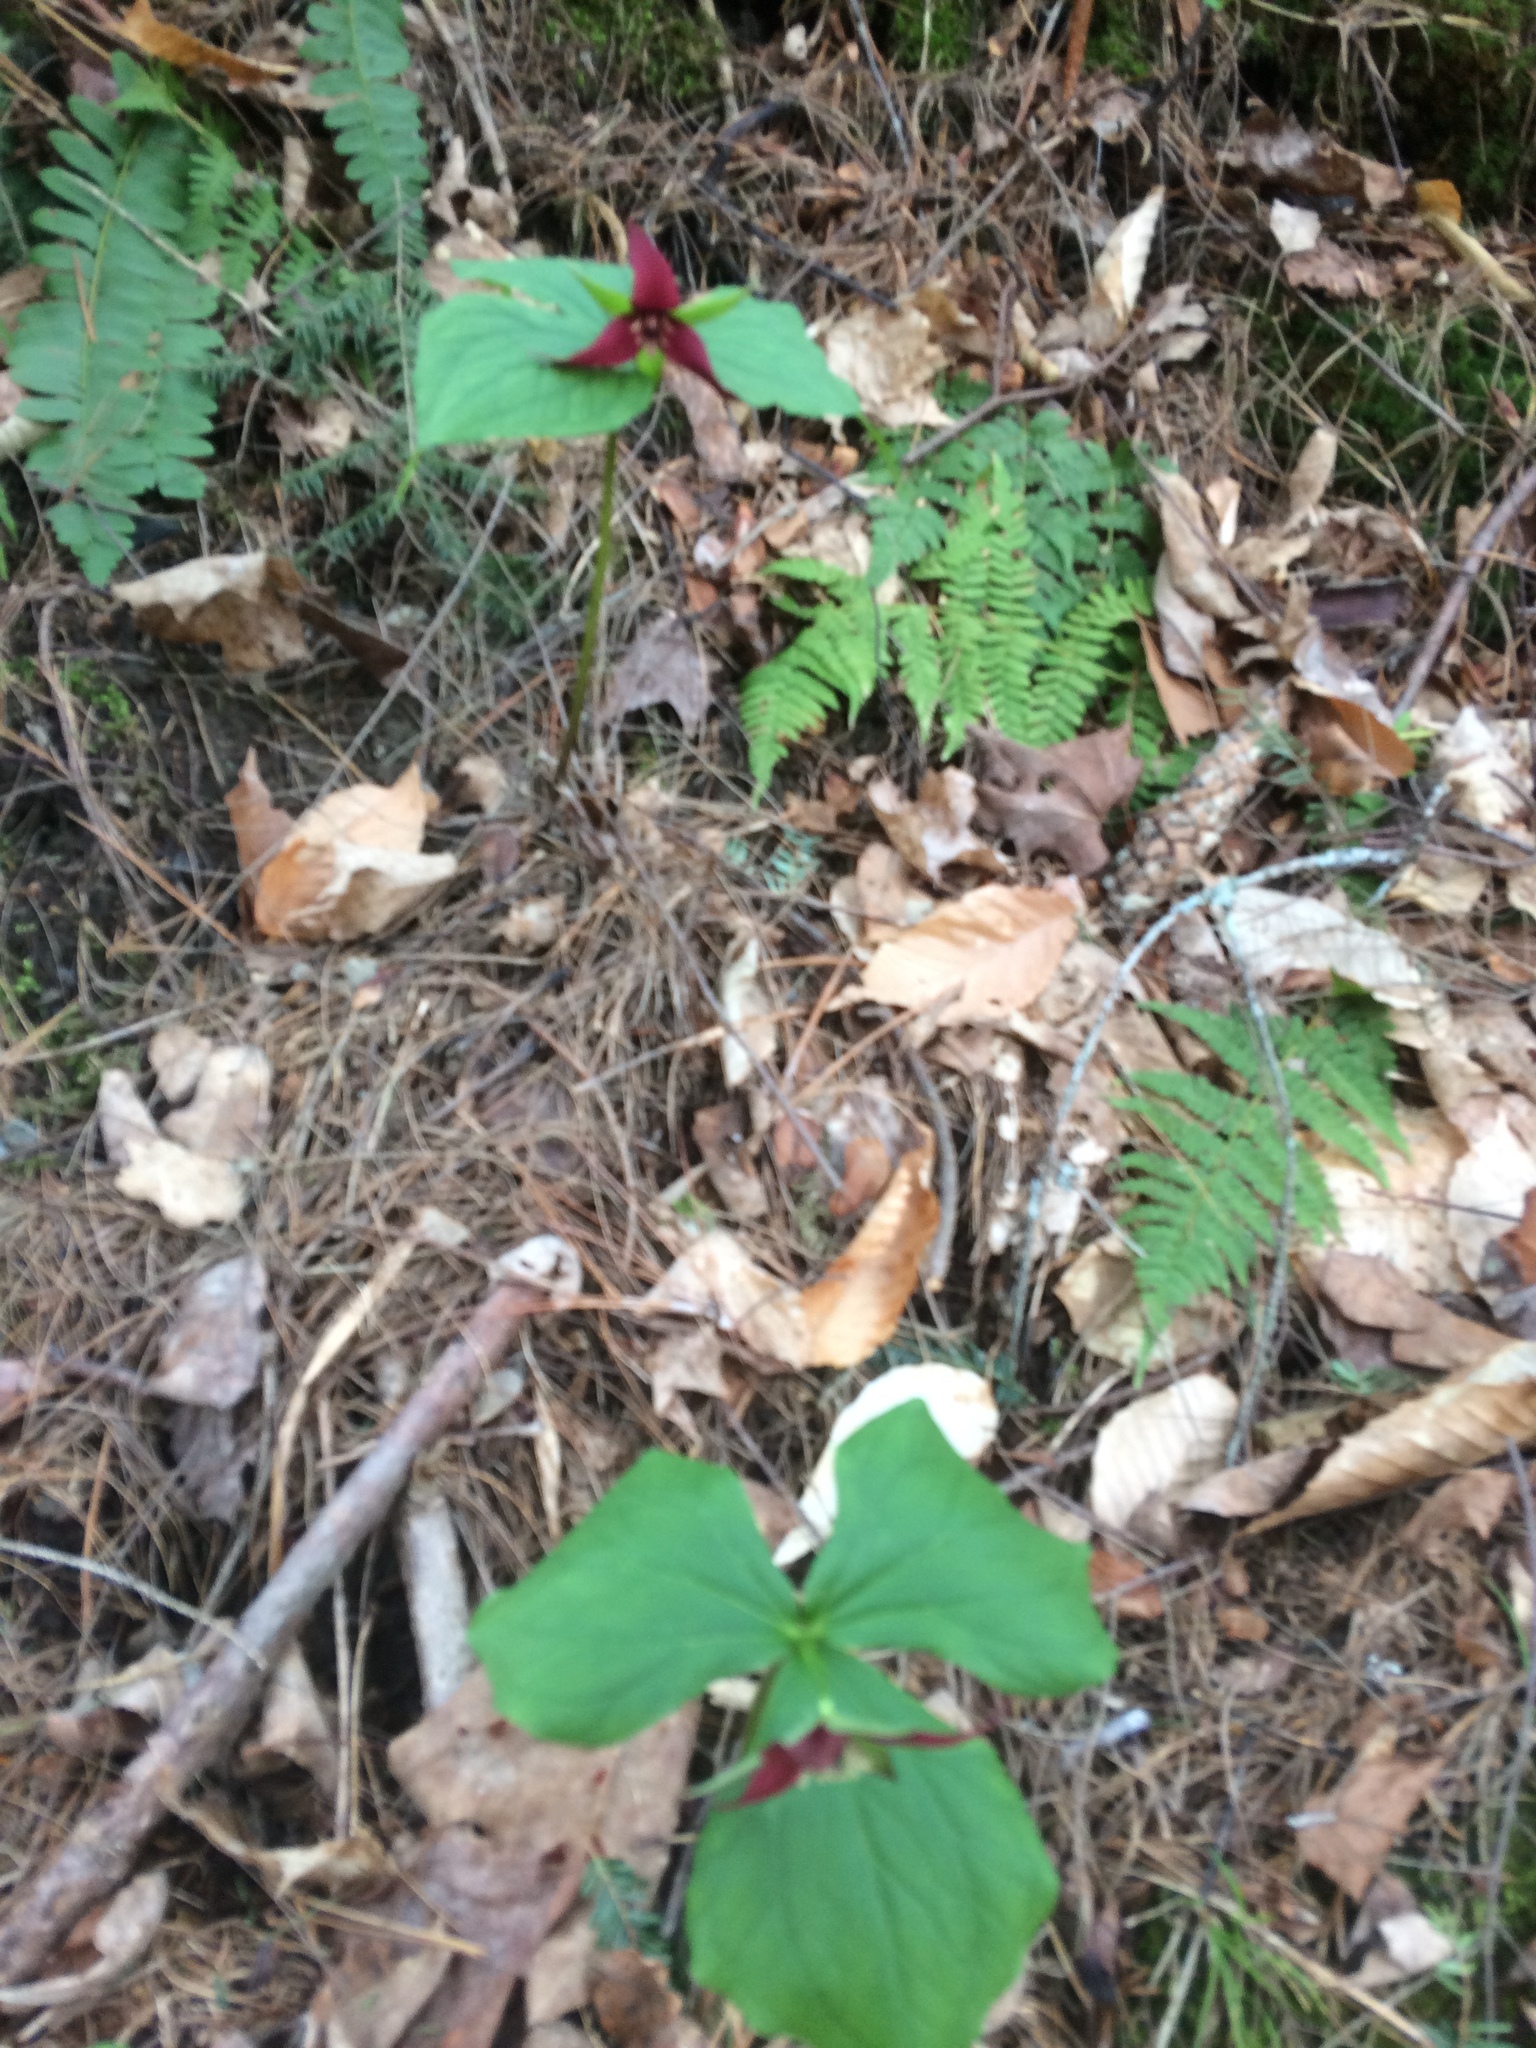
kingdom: Plantae
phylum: Tracheophyta
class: Liliopsida
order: Liliales
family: Melanthiaceae
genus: Trillium
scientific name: Trillium erectum
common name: Purple trillium
